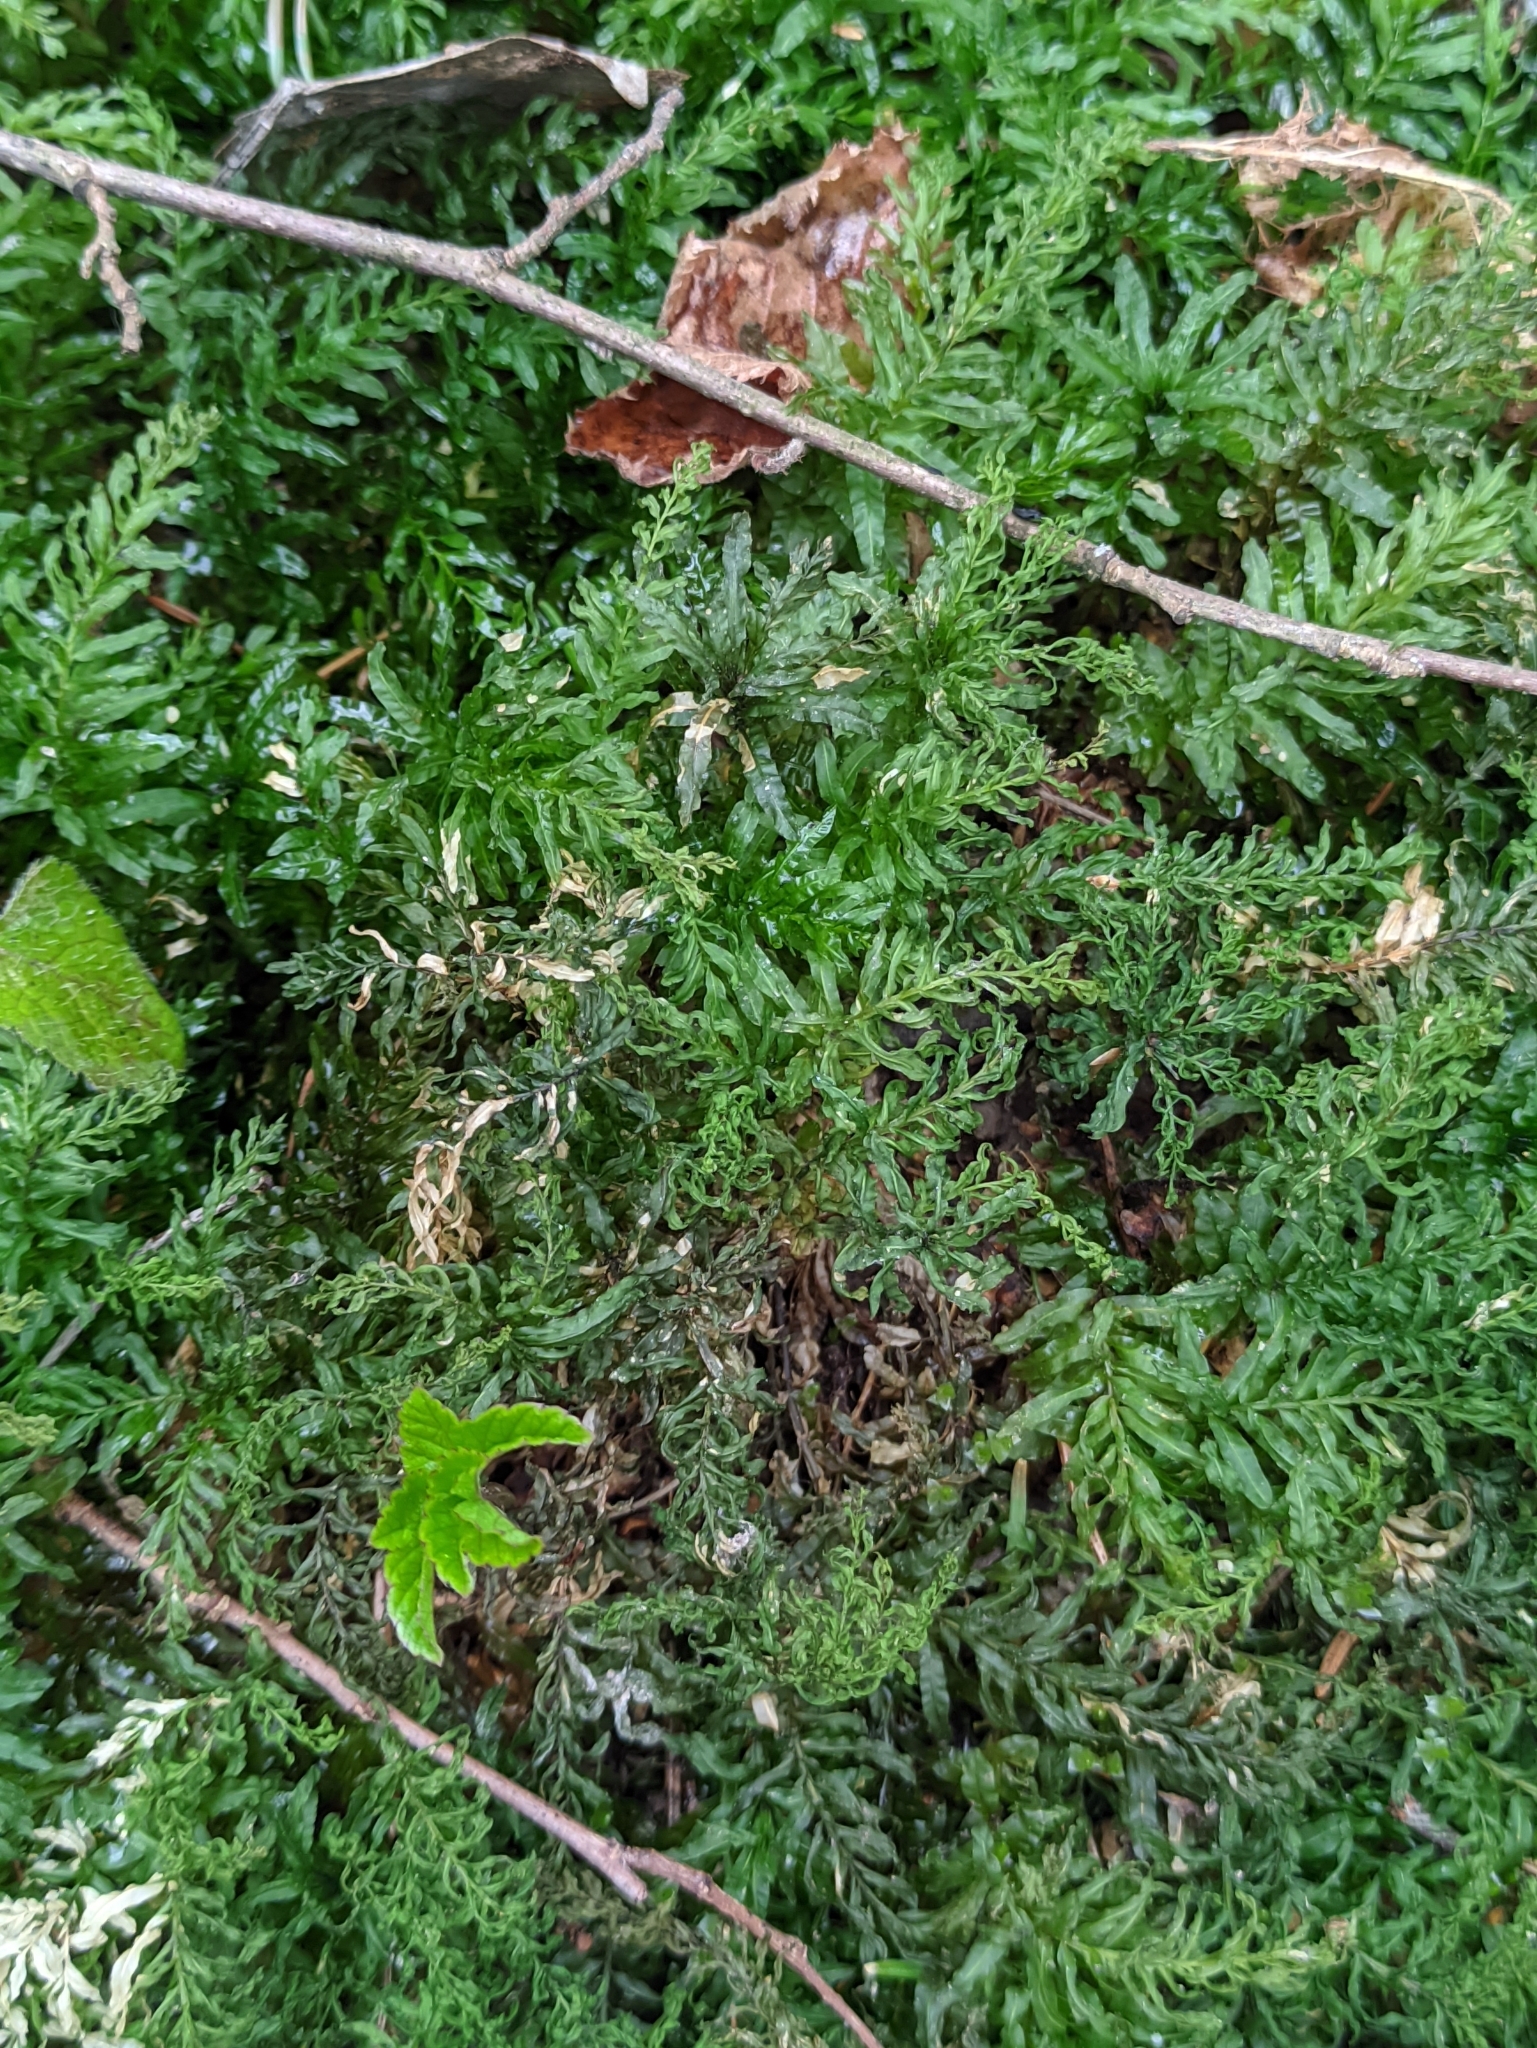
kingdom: Plantae
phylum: Bryophyta
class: Bryopsida
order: Bryales
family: Mniaceae
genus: Plagiomnium
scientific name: Plagiomnium undulatum
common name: Hart's-tongue thyme-moss
